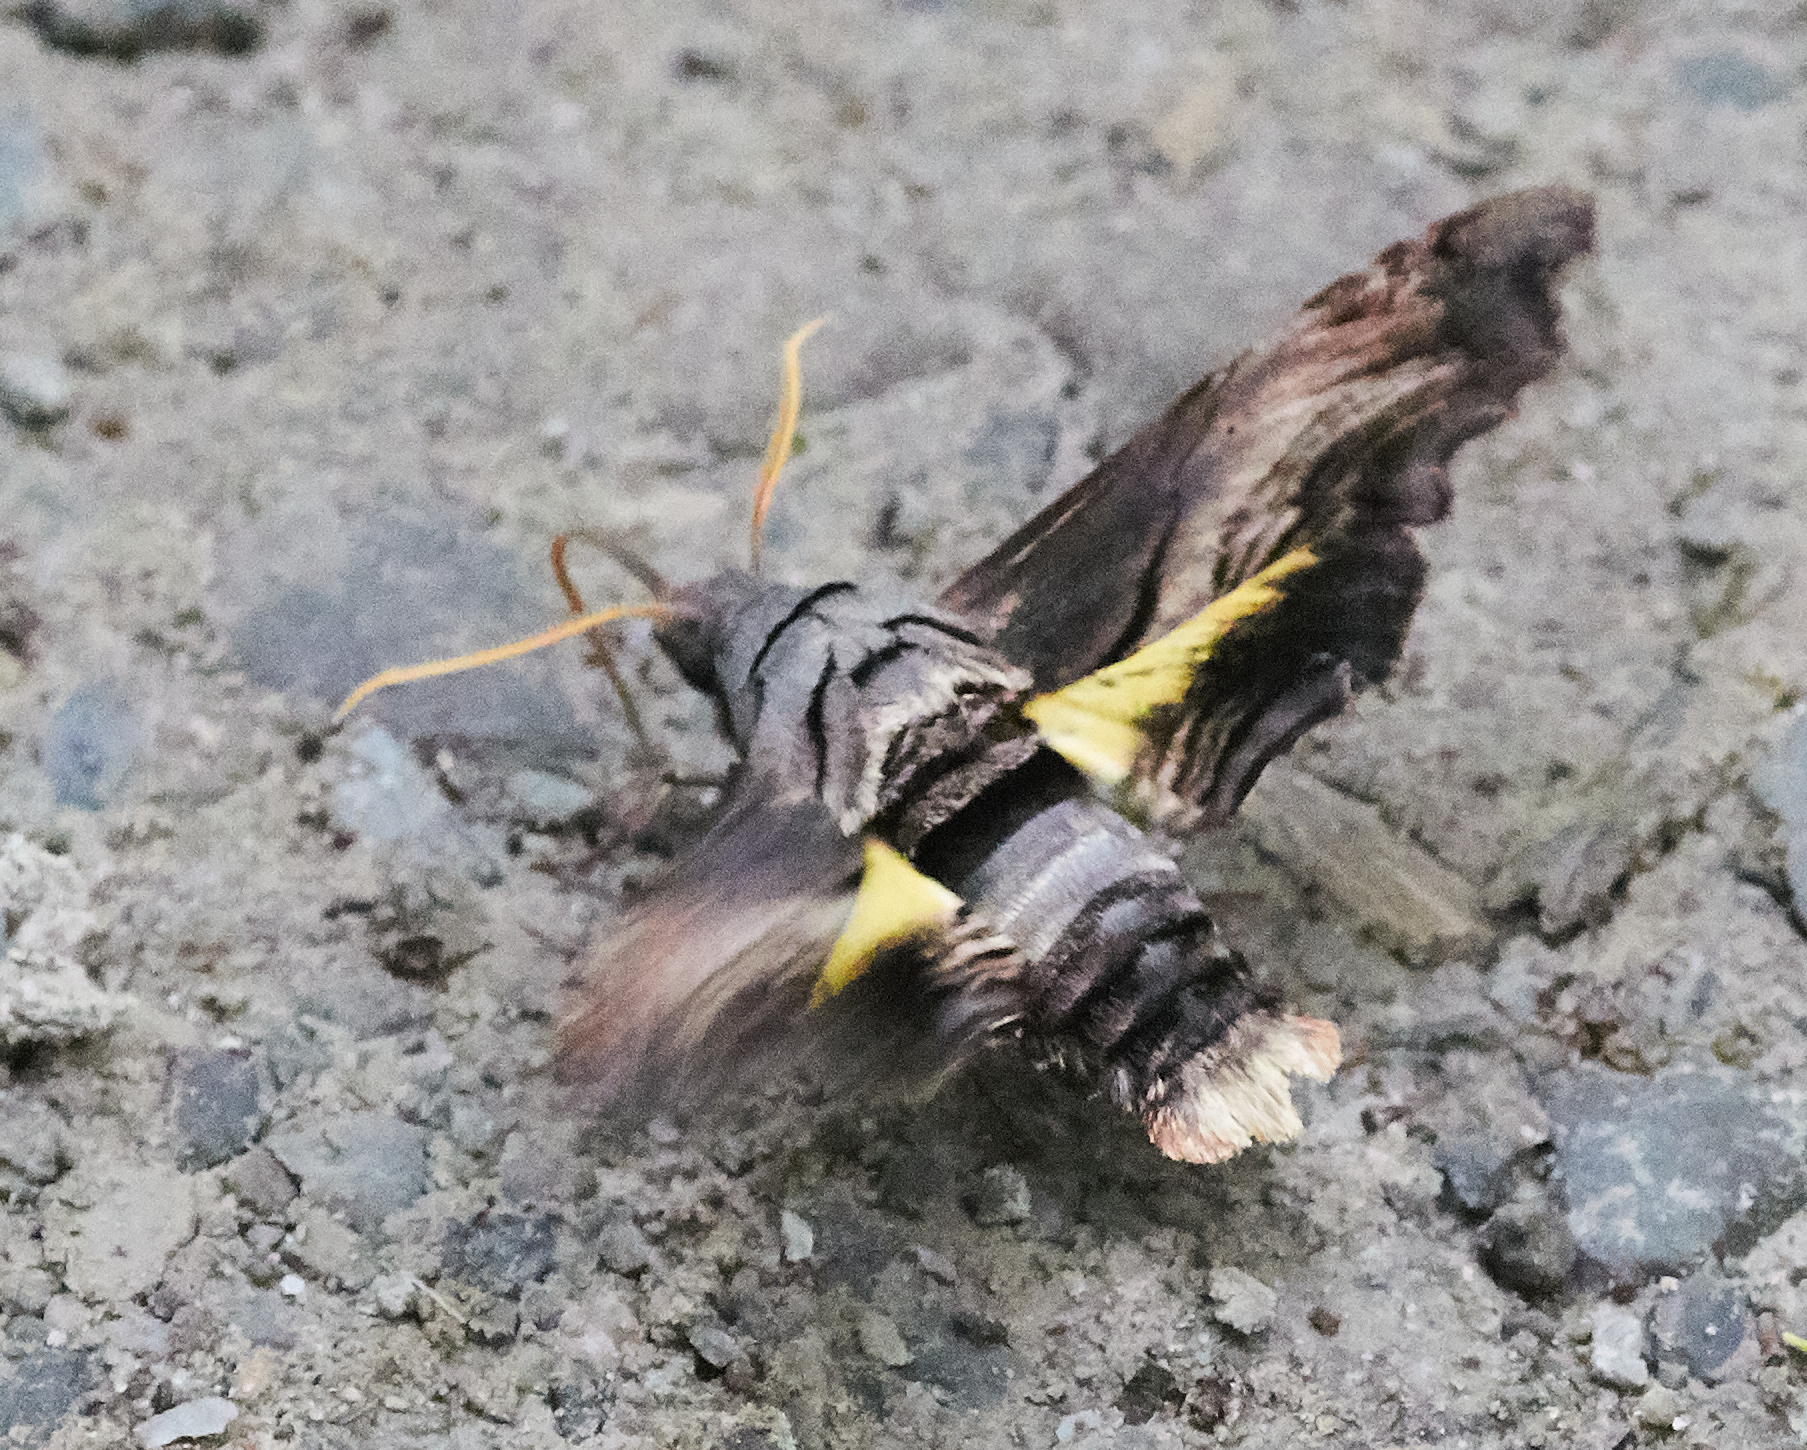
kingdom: Animalia
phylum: Arthropoda
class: Insecta
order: Lepidoptera
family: Sphingidae
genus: Sphecodina
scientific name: Sphecodina abbottii
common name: Abbott's sphinx
